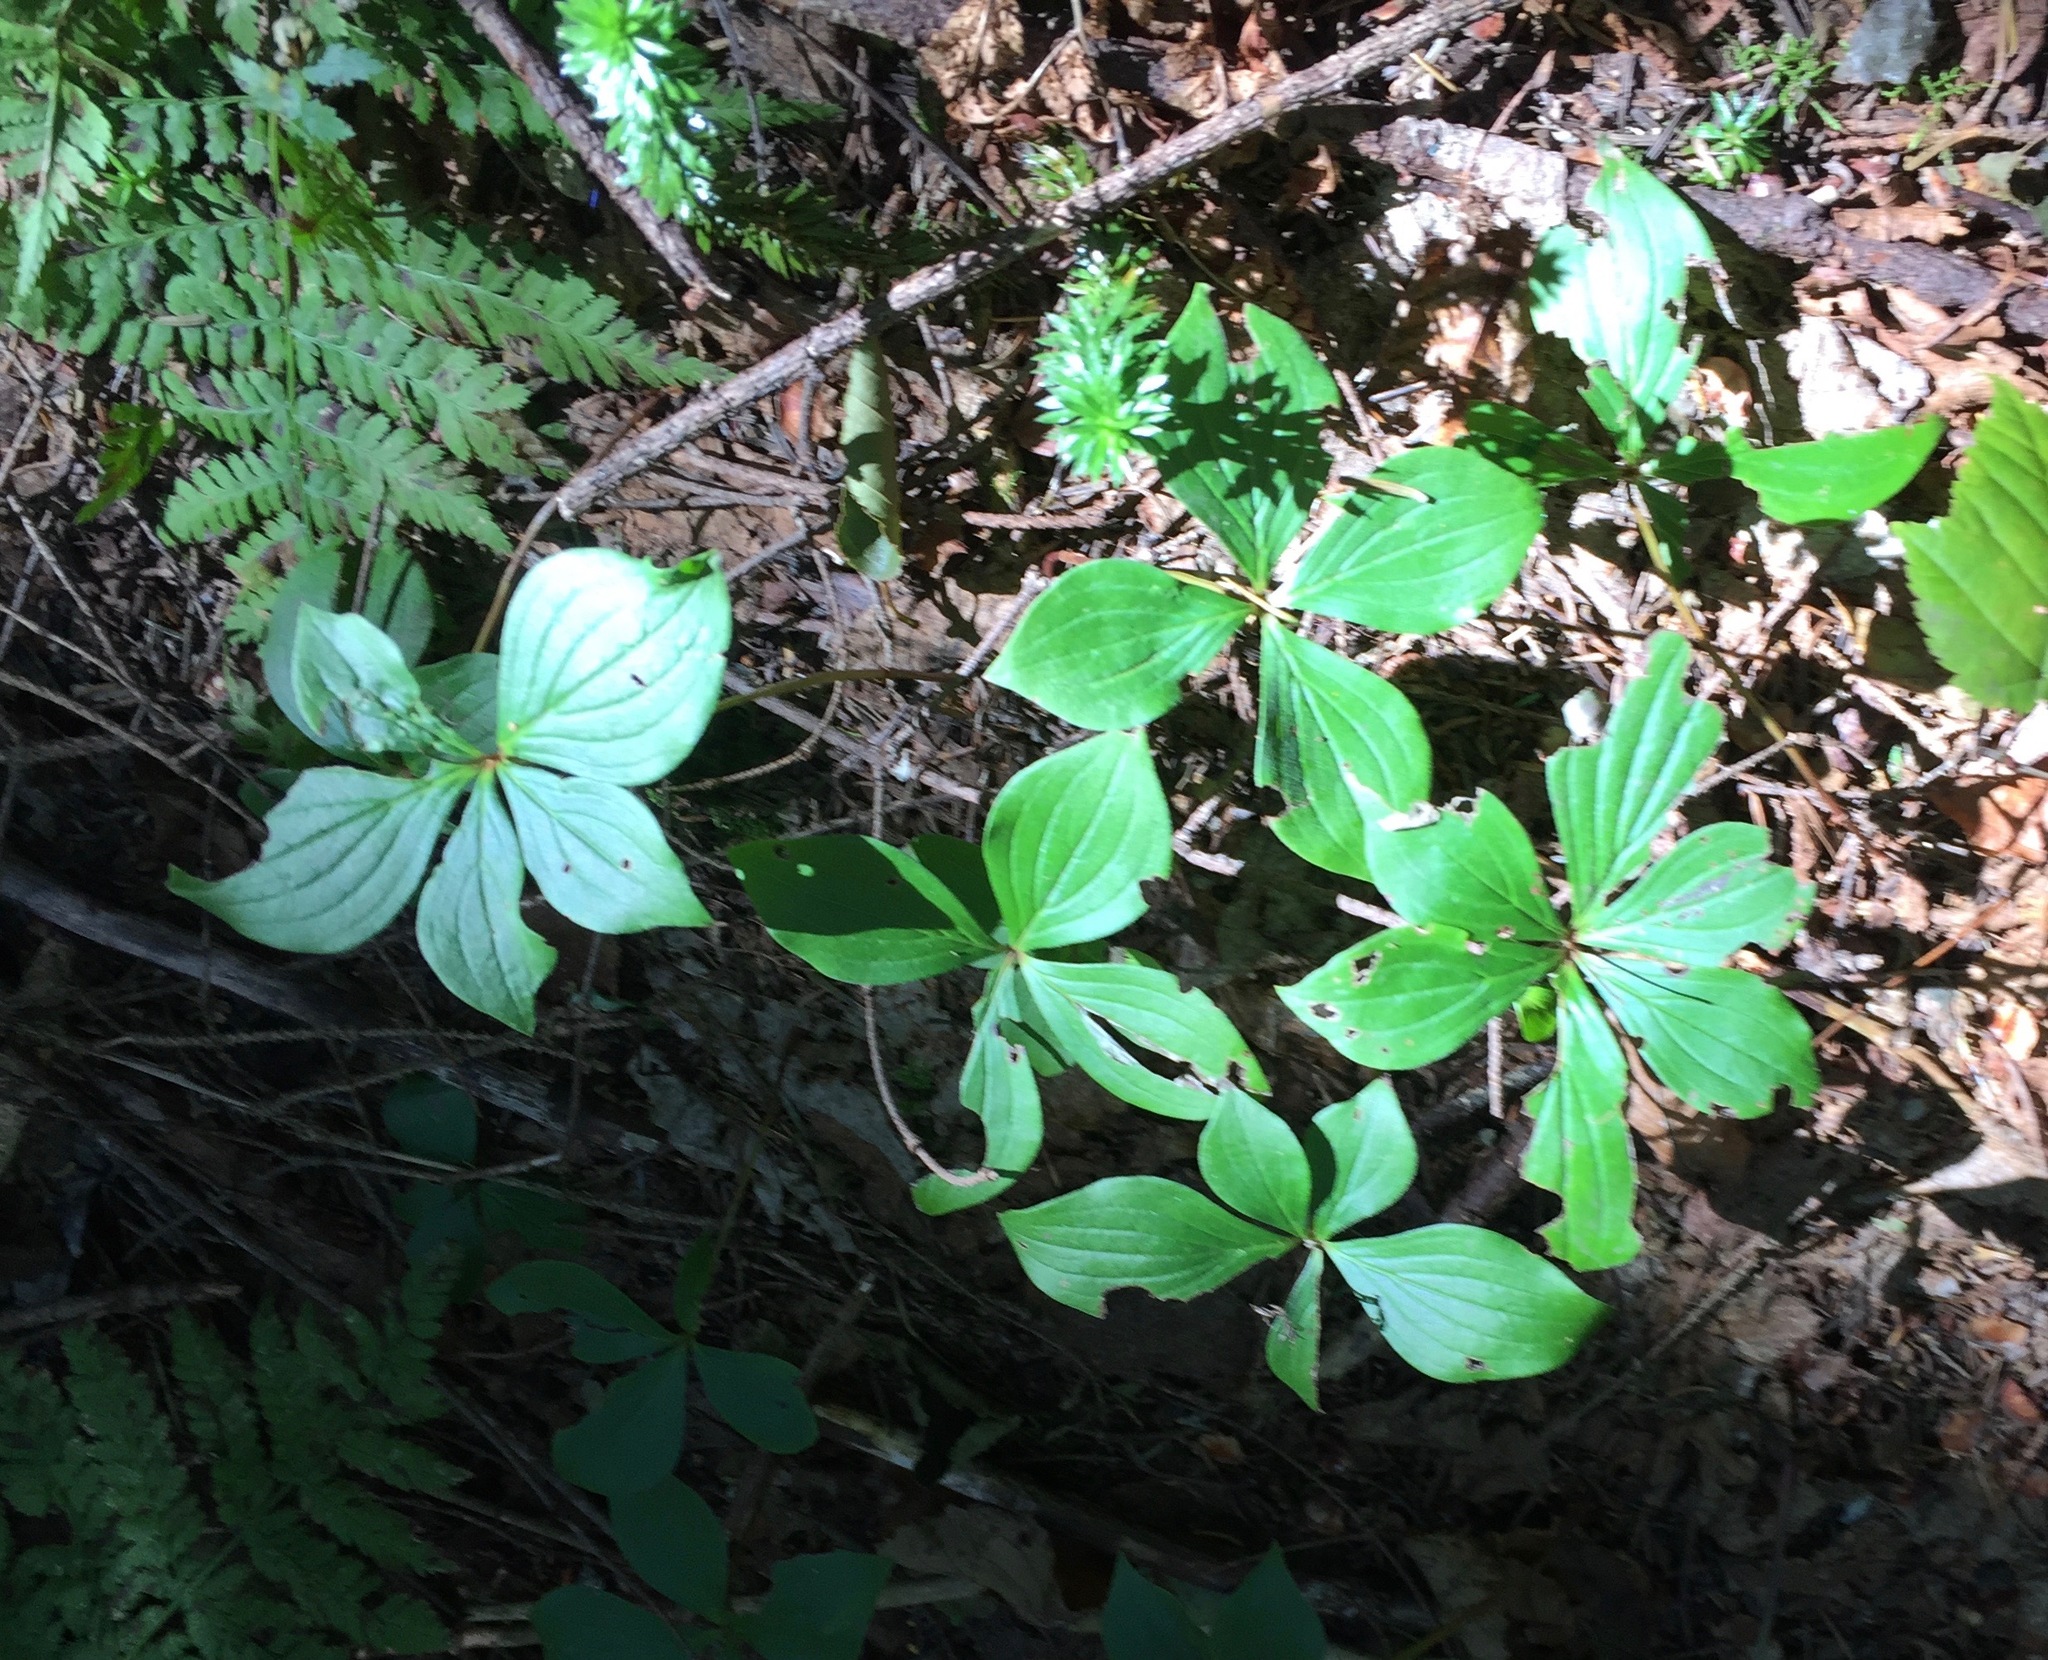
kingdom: Plantae
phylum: Tracheophyta
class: Magnoliopsida
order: Cornales
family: Cornaceae
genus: Cornus
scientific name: Cornus canadensis
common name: Creeping dogwood
